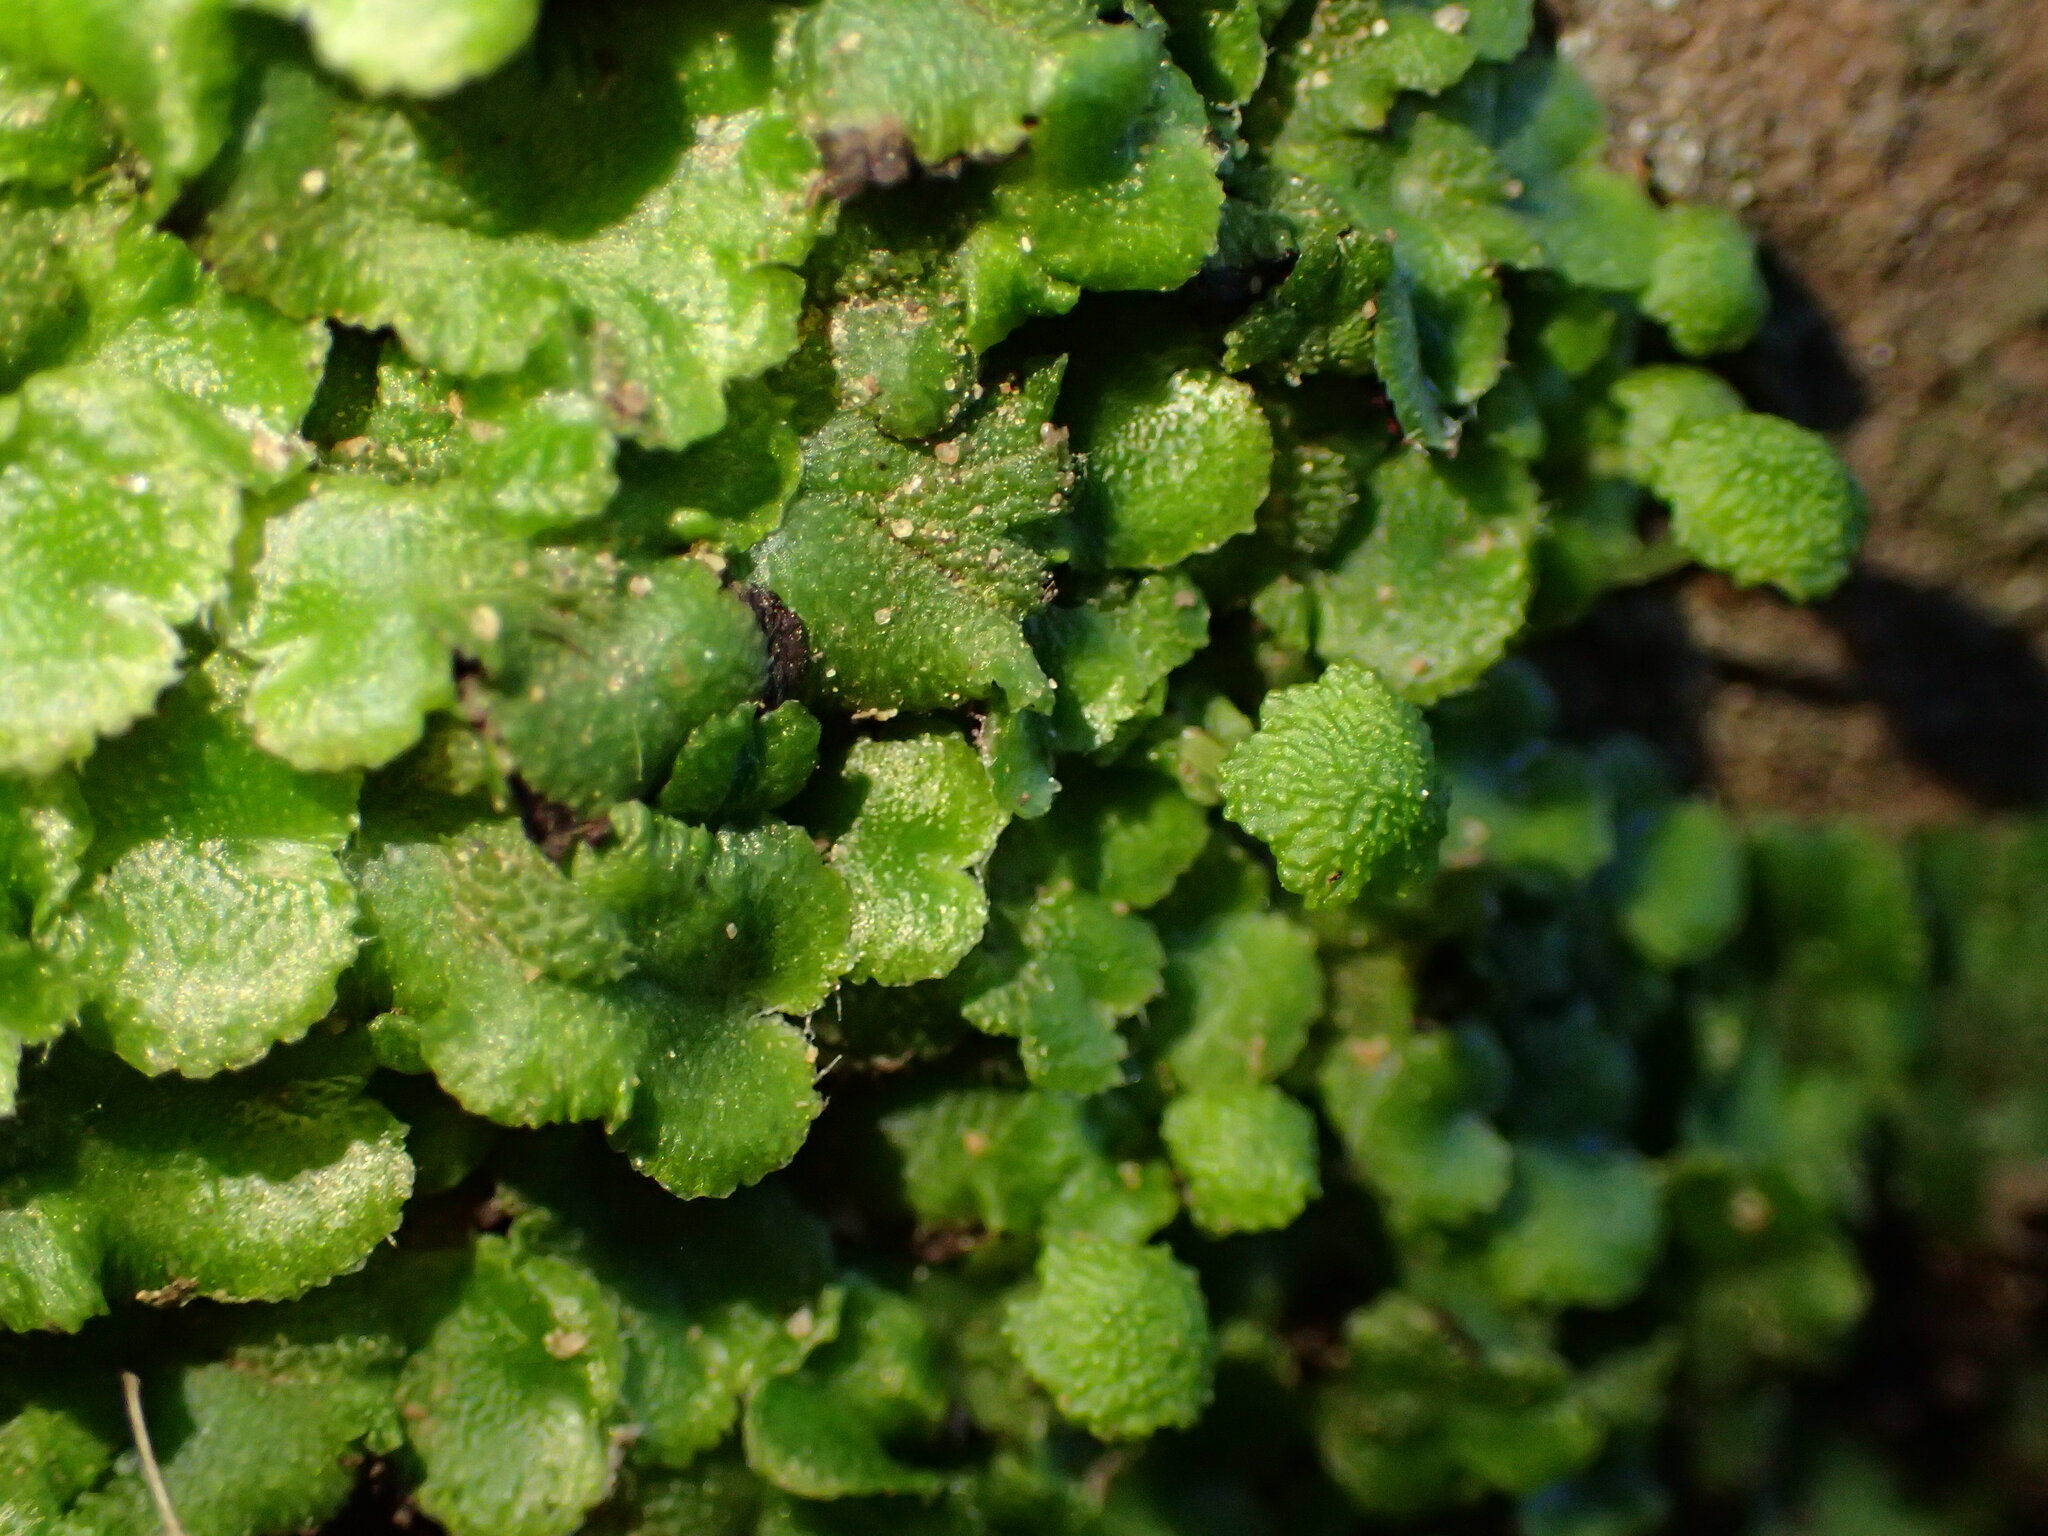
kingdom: Plantae
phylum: Marchantiophyta
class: Marchantiopsida
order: Marchantiales
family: Aytoniaceae
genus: Cryptomitrium
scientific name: Cryptomitrium tenerum
